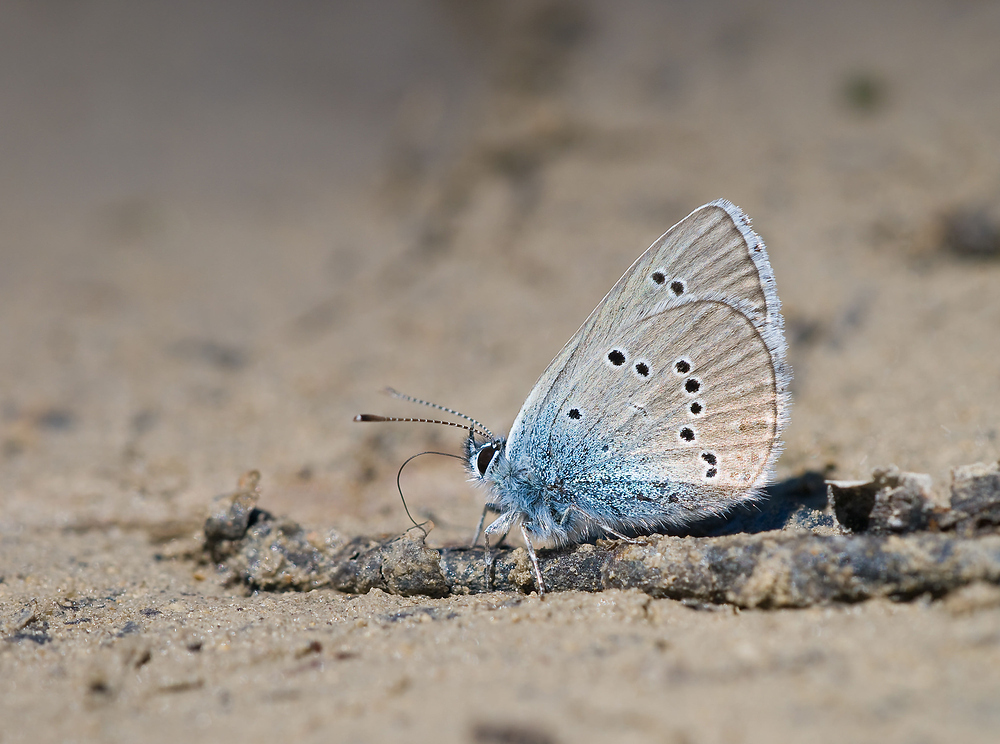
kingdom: Animalia
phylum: Arthropoda
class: Insecta
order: Lepidoptera
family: Lycaenidae
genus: Cyaniris
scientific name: Cyaniris semiargus
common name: Mazarine blue
